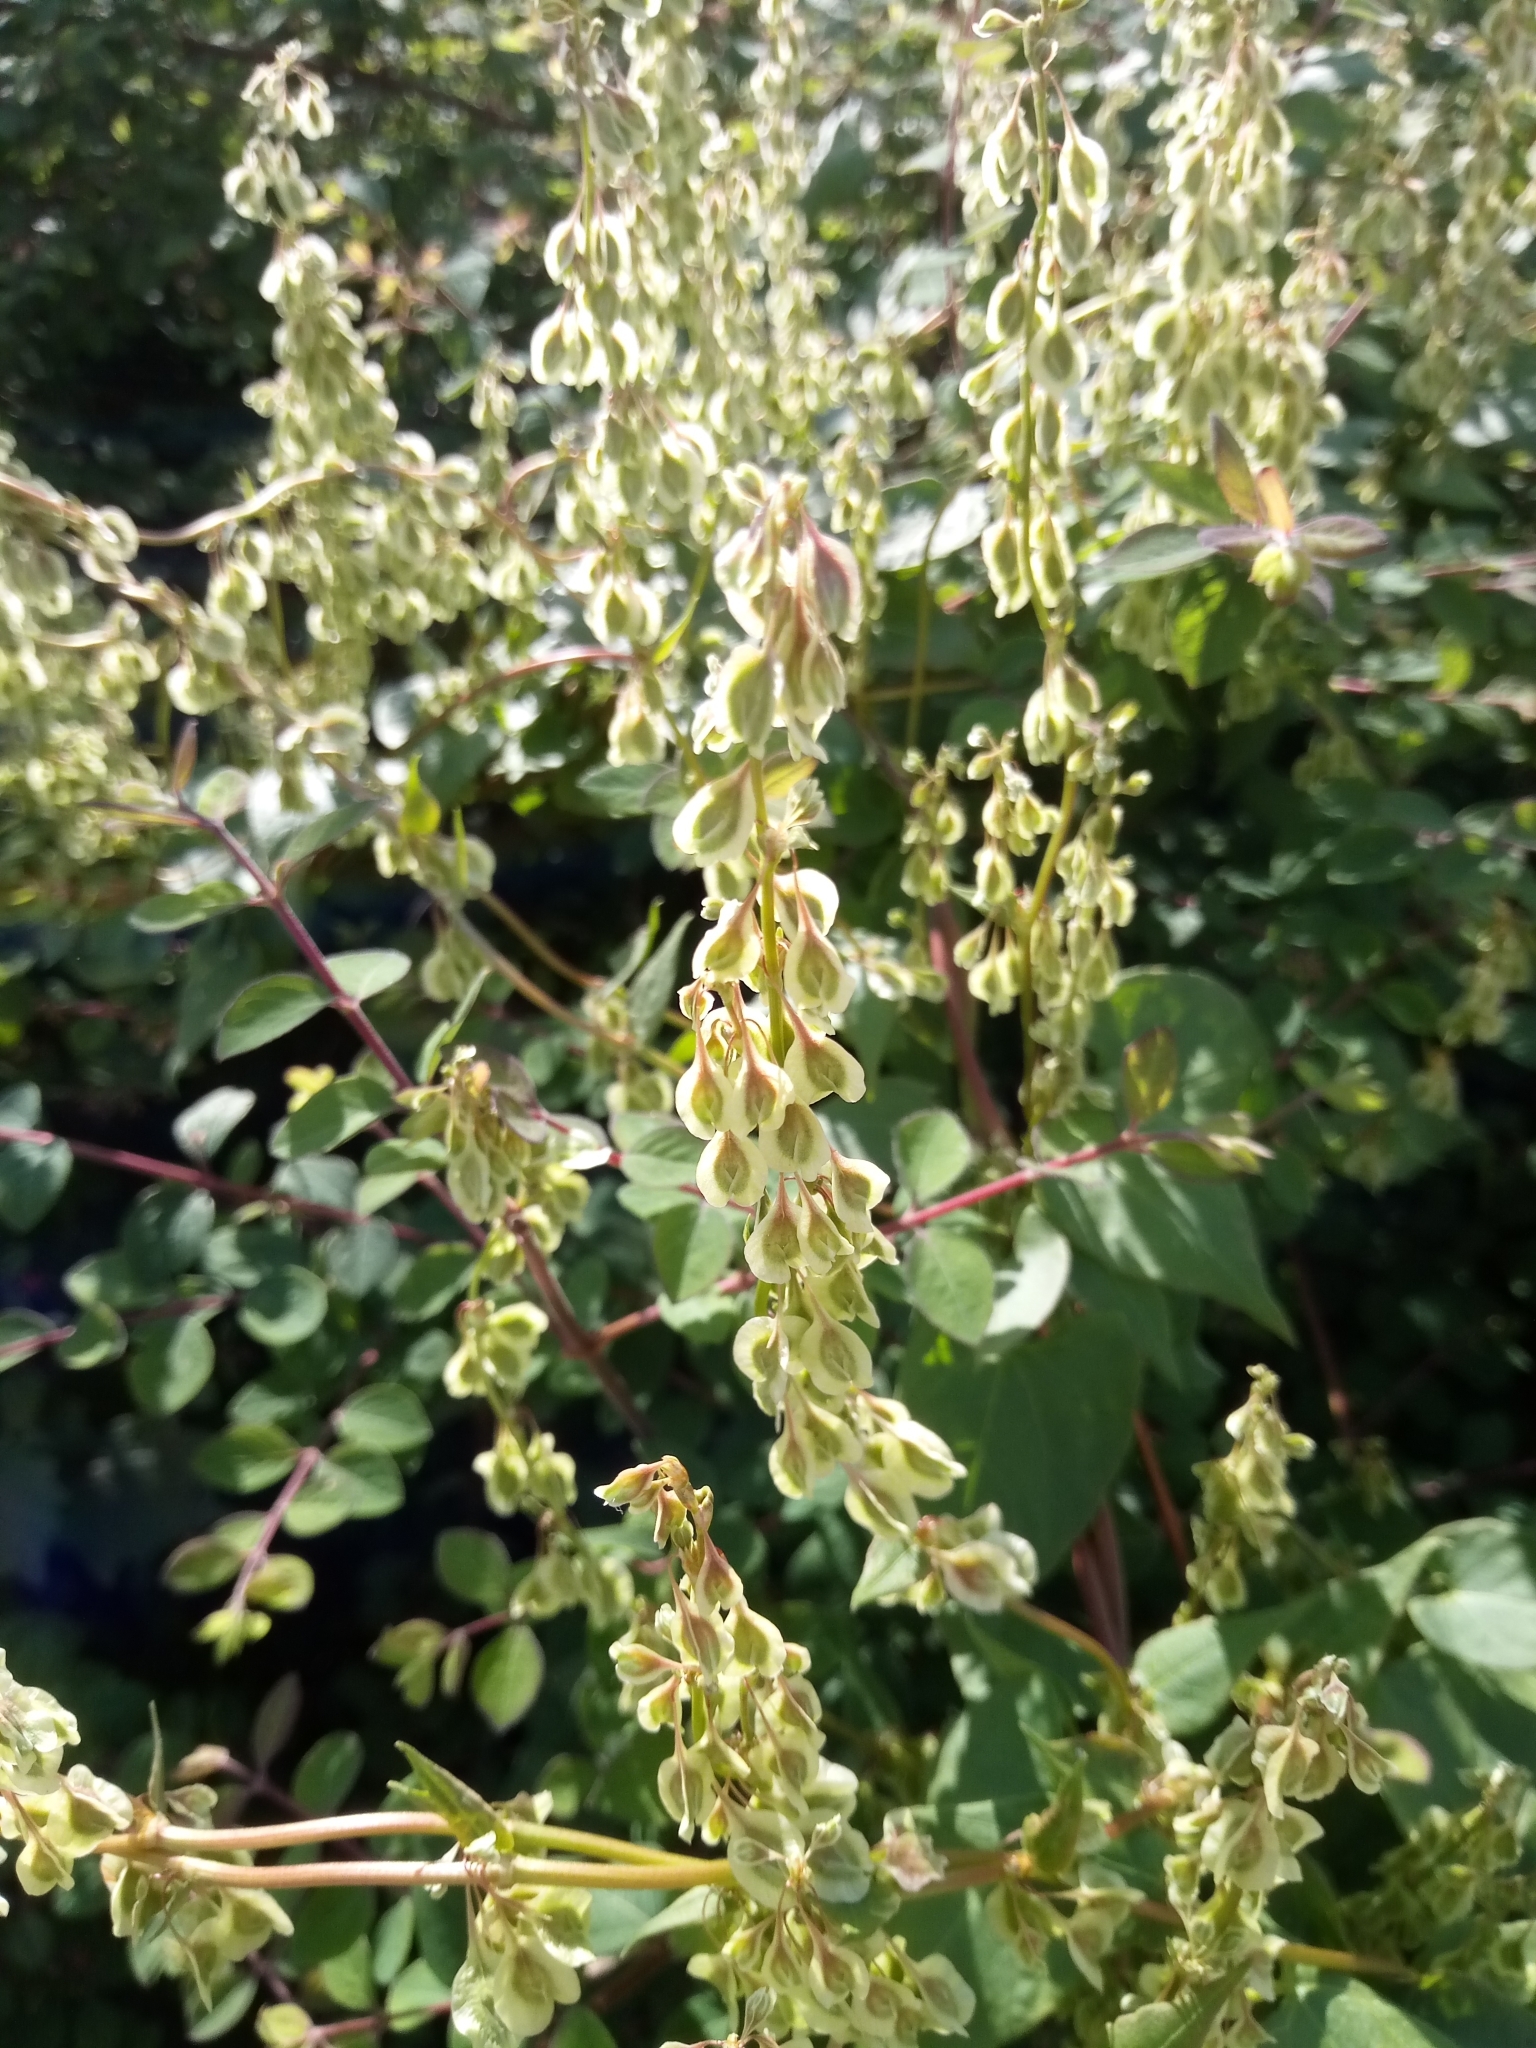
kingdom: Plantae
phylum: Tracheophyta
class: Magnoliopsida
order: Caryophyllales
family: Polygonaceae
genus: Fallopia
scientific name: Fallopia dumetorum
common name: Copse-bindweed
